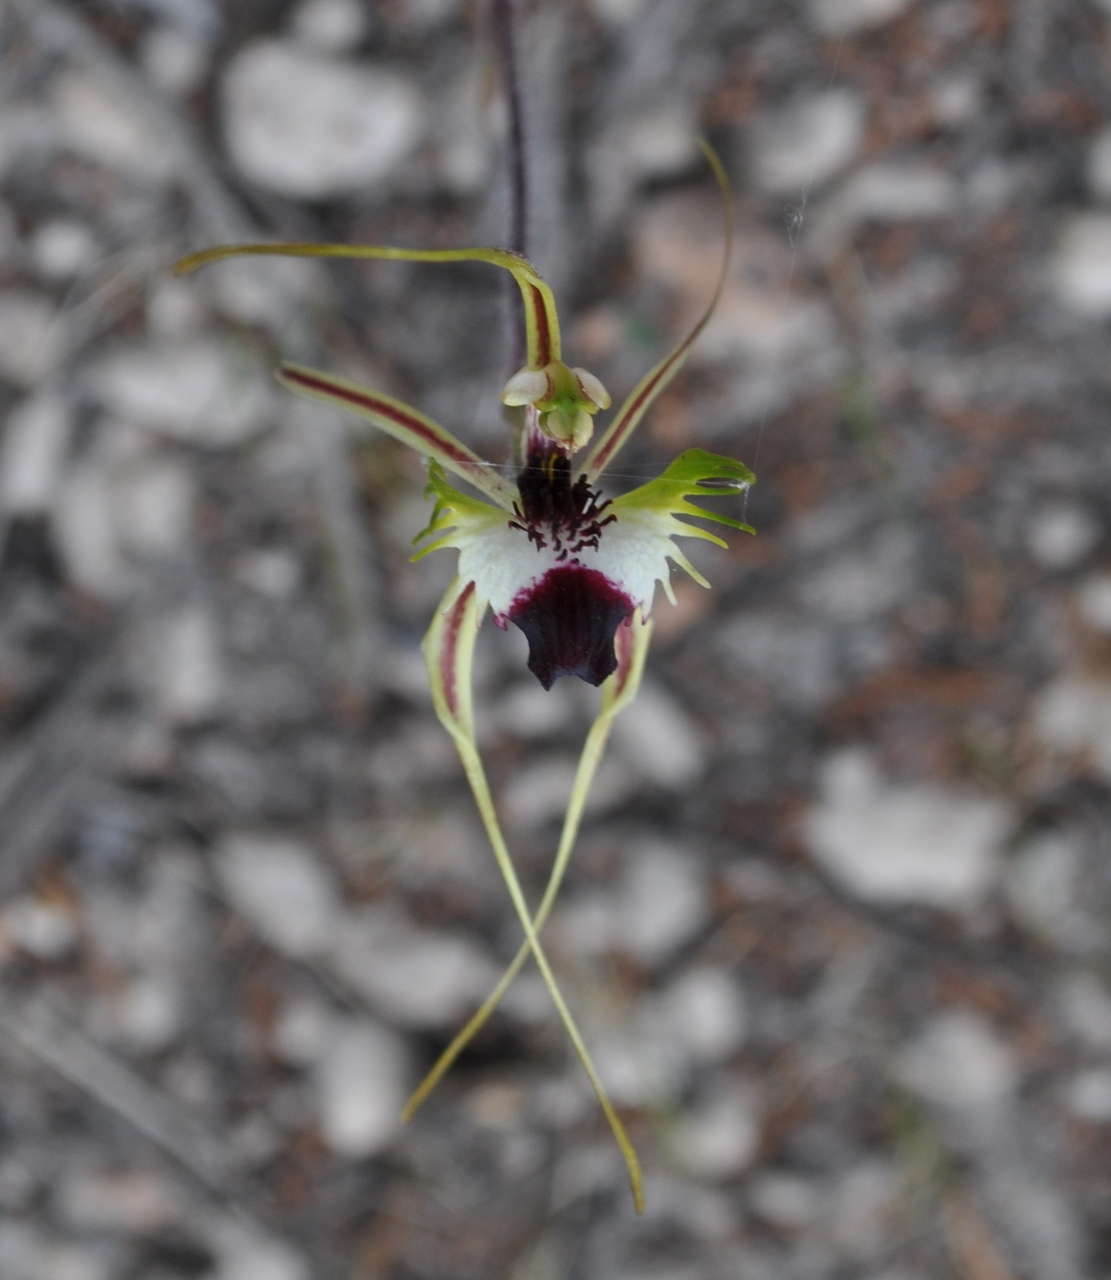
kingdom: Plantae
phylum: Tracheophyta
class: Liliopsida
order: Asparagales
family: Orchidaceae
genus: Caladenia
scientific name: Caladenia tentaculata
